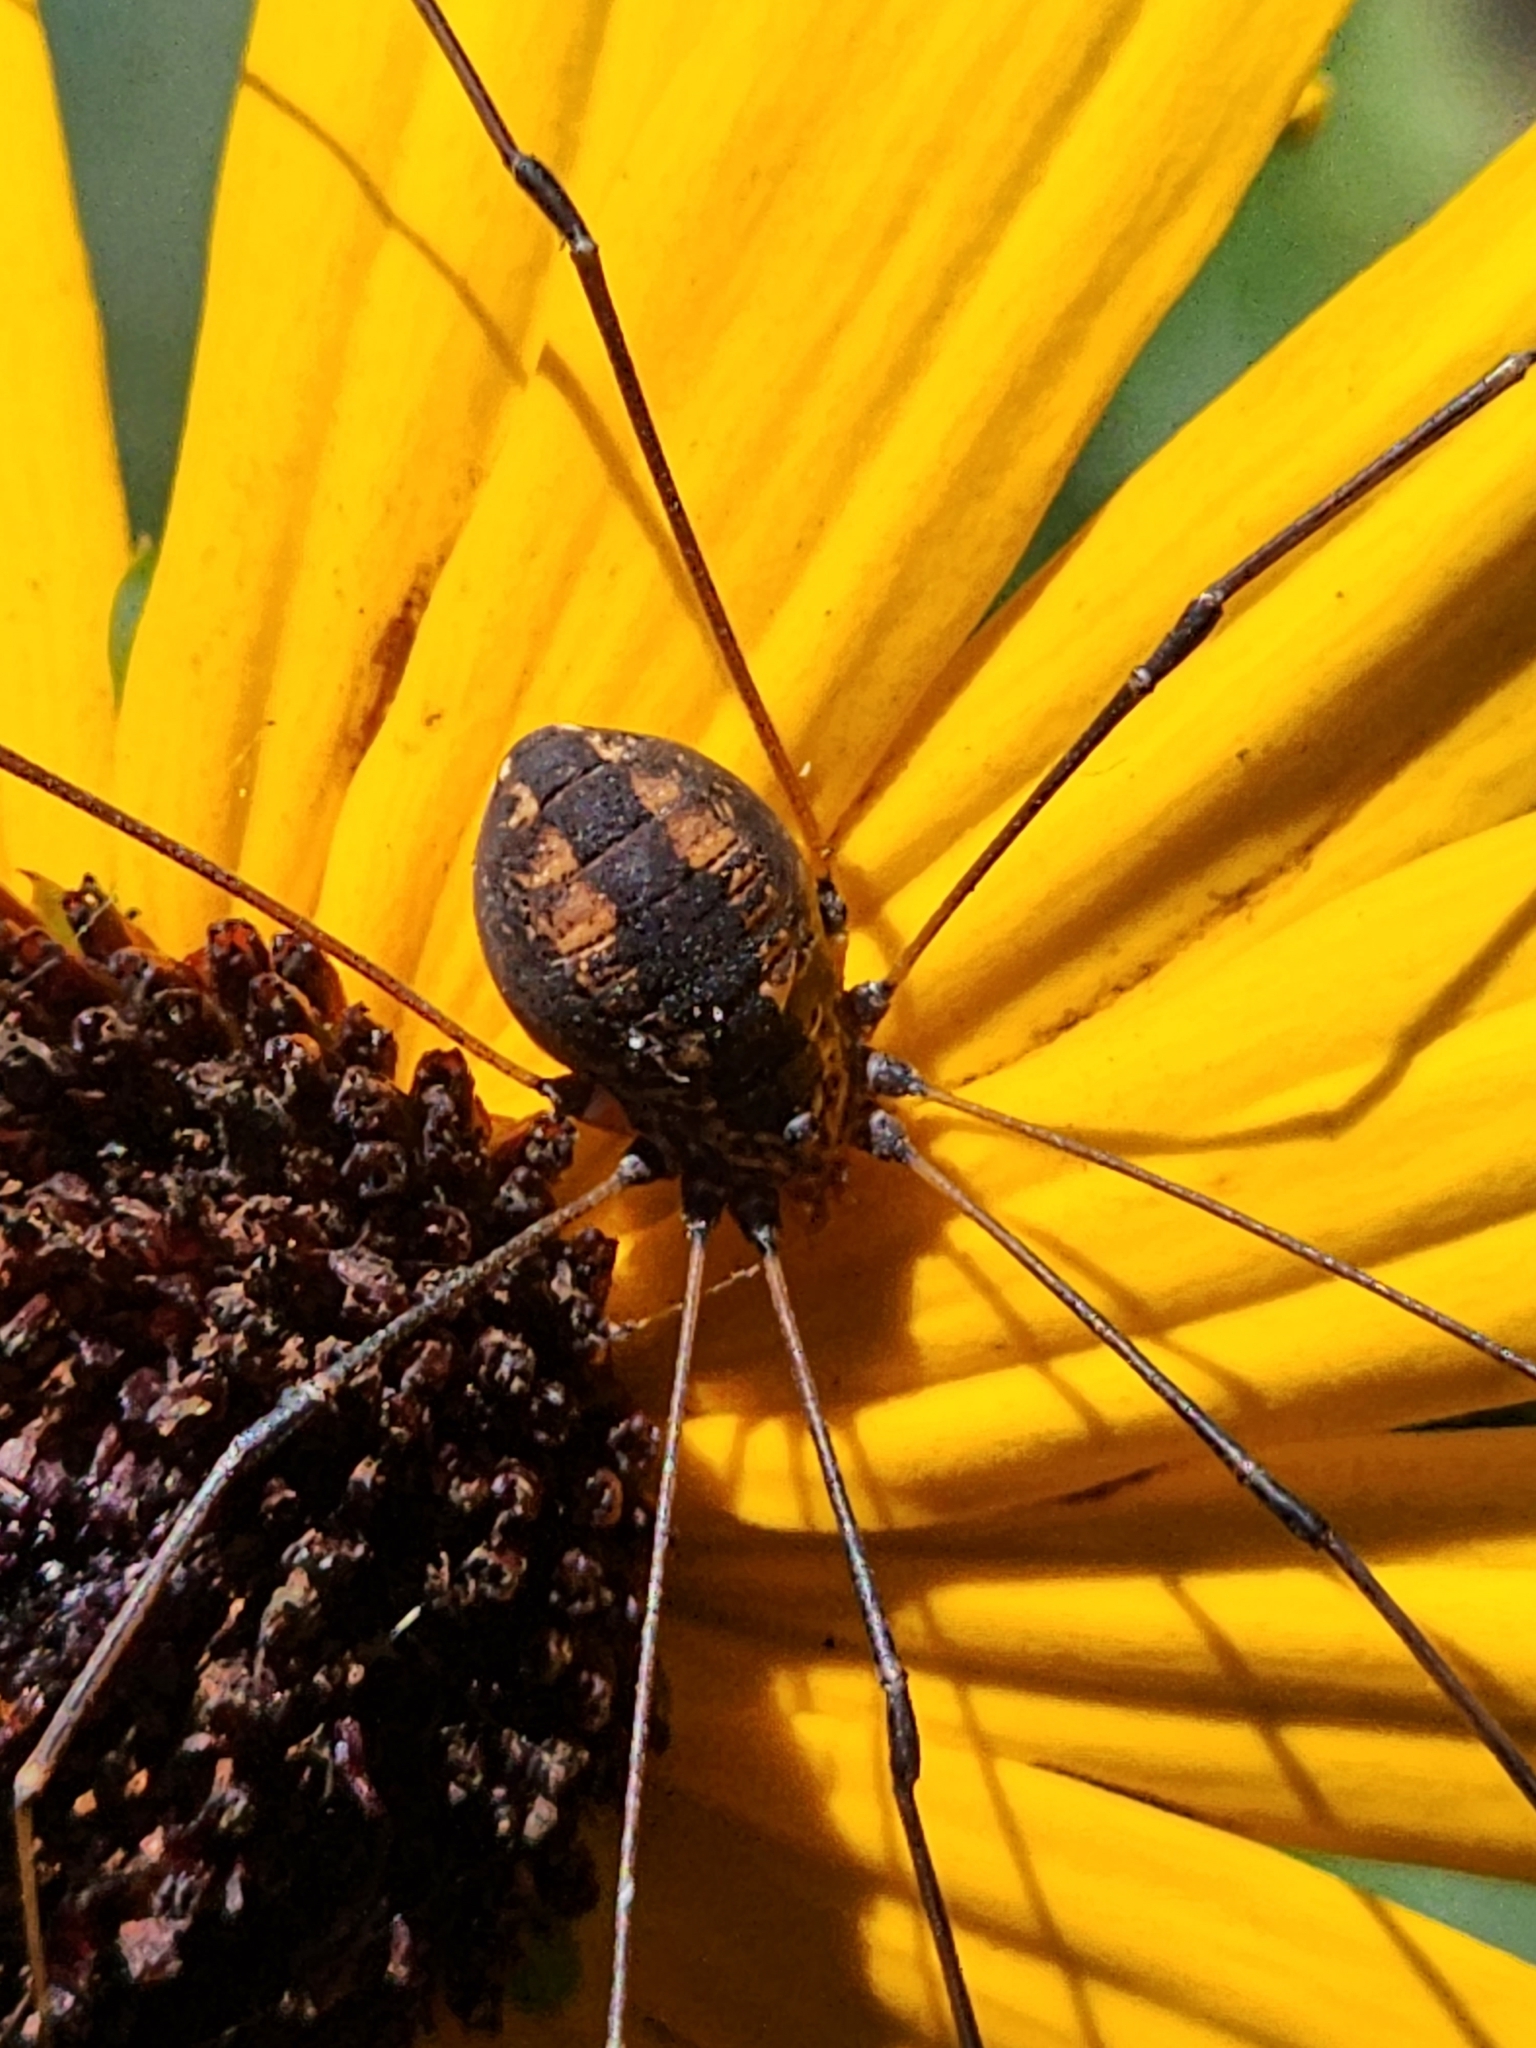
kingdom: Animalia
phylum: Arthropoda
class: Arachnida
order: Opiliones
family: Sclerosomatidae
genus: Leiobunum
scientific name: Leiobunum vittatum
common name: Eastern harvestman
